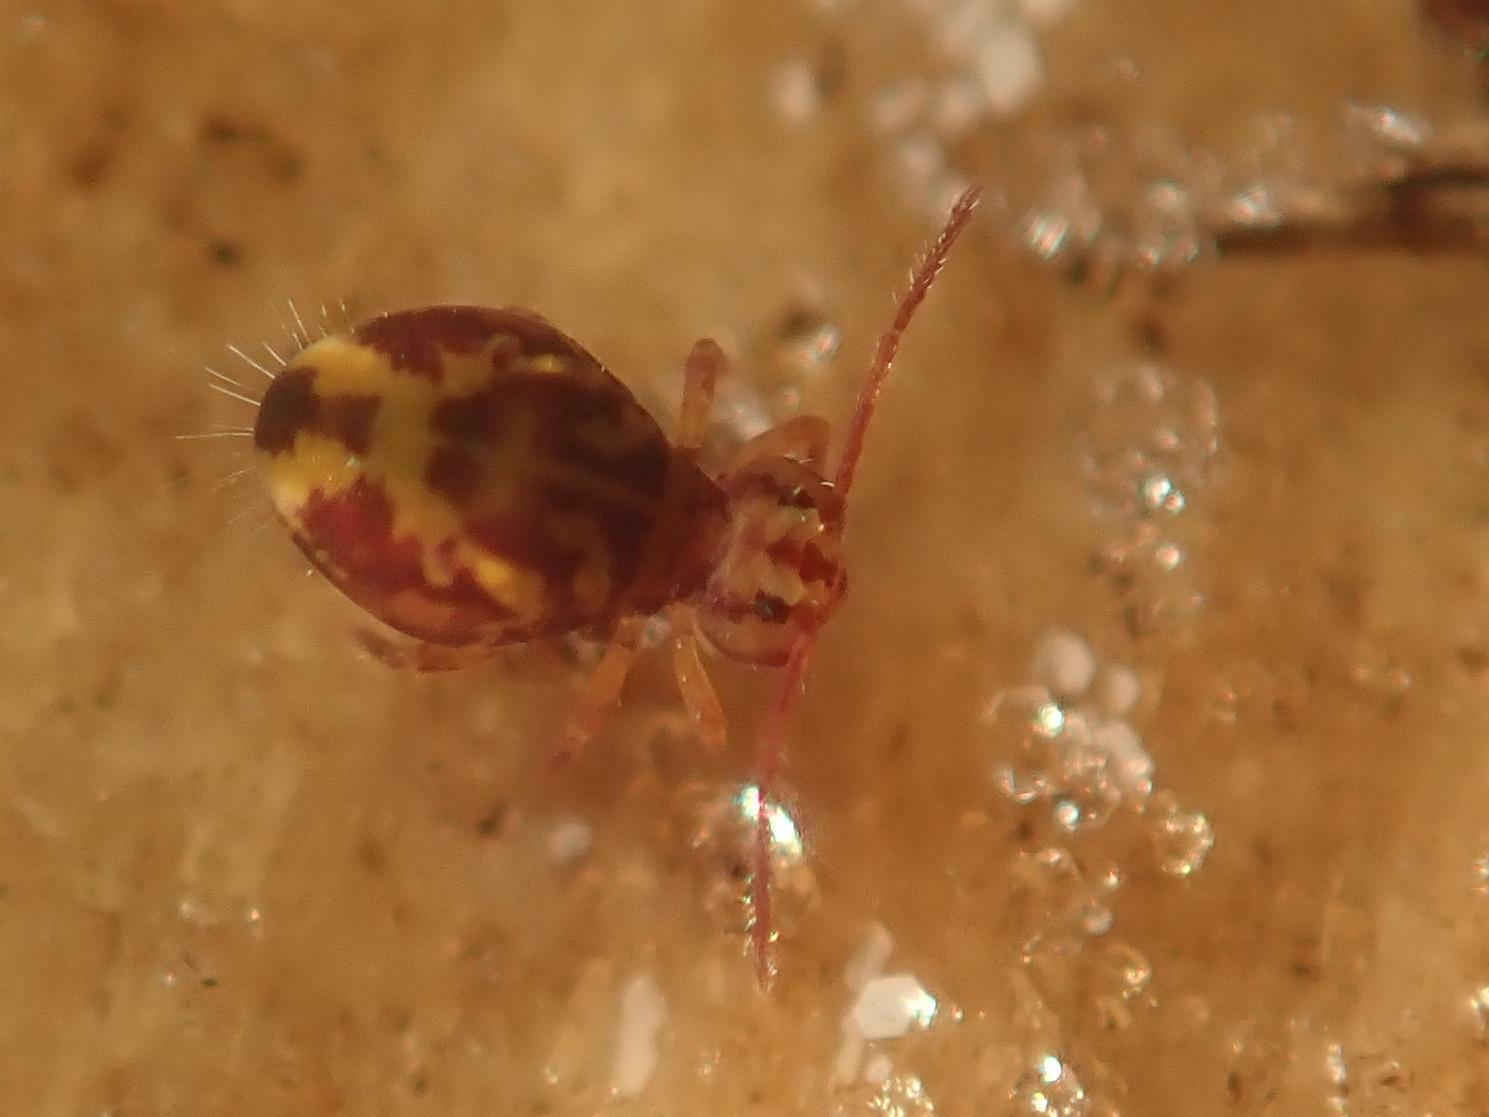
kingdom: Animalia
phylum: Arthropoda
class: Collembola
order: Symphypleona
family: Dicyrtomidae
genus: Dicyrtomina
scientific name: Dicyrtomina ornata
